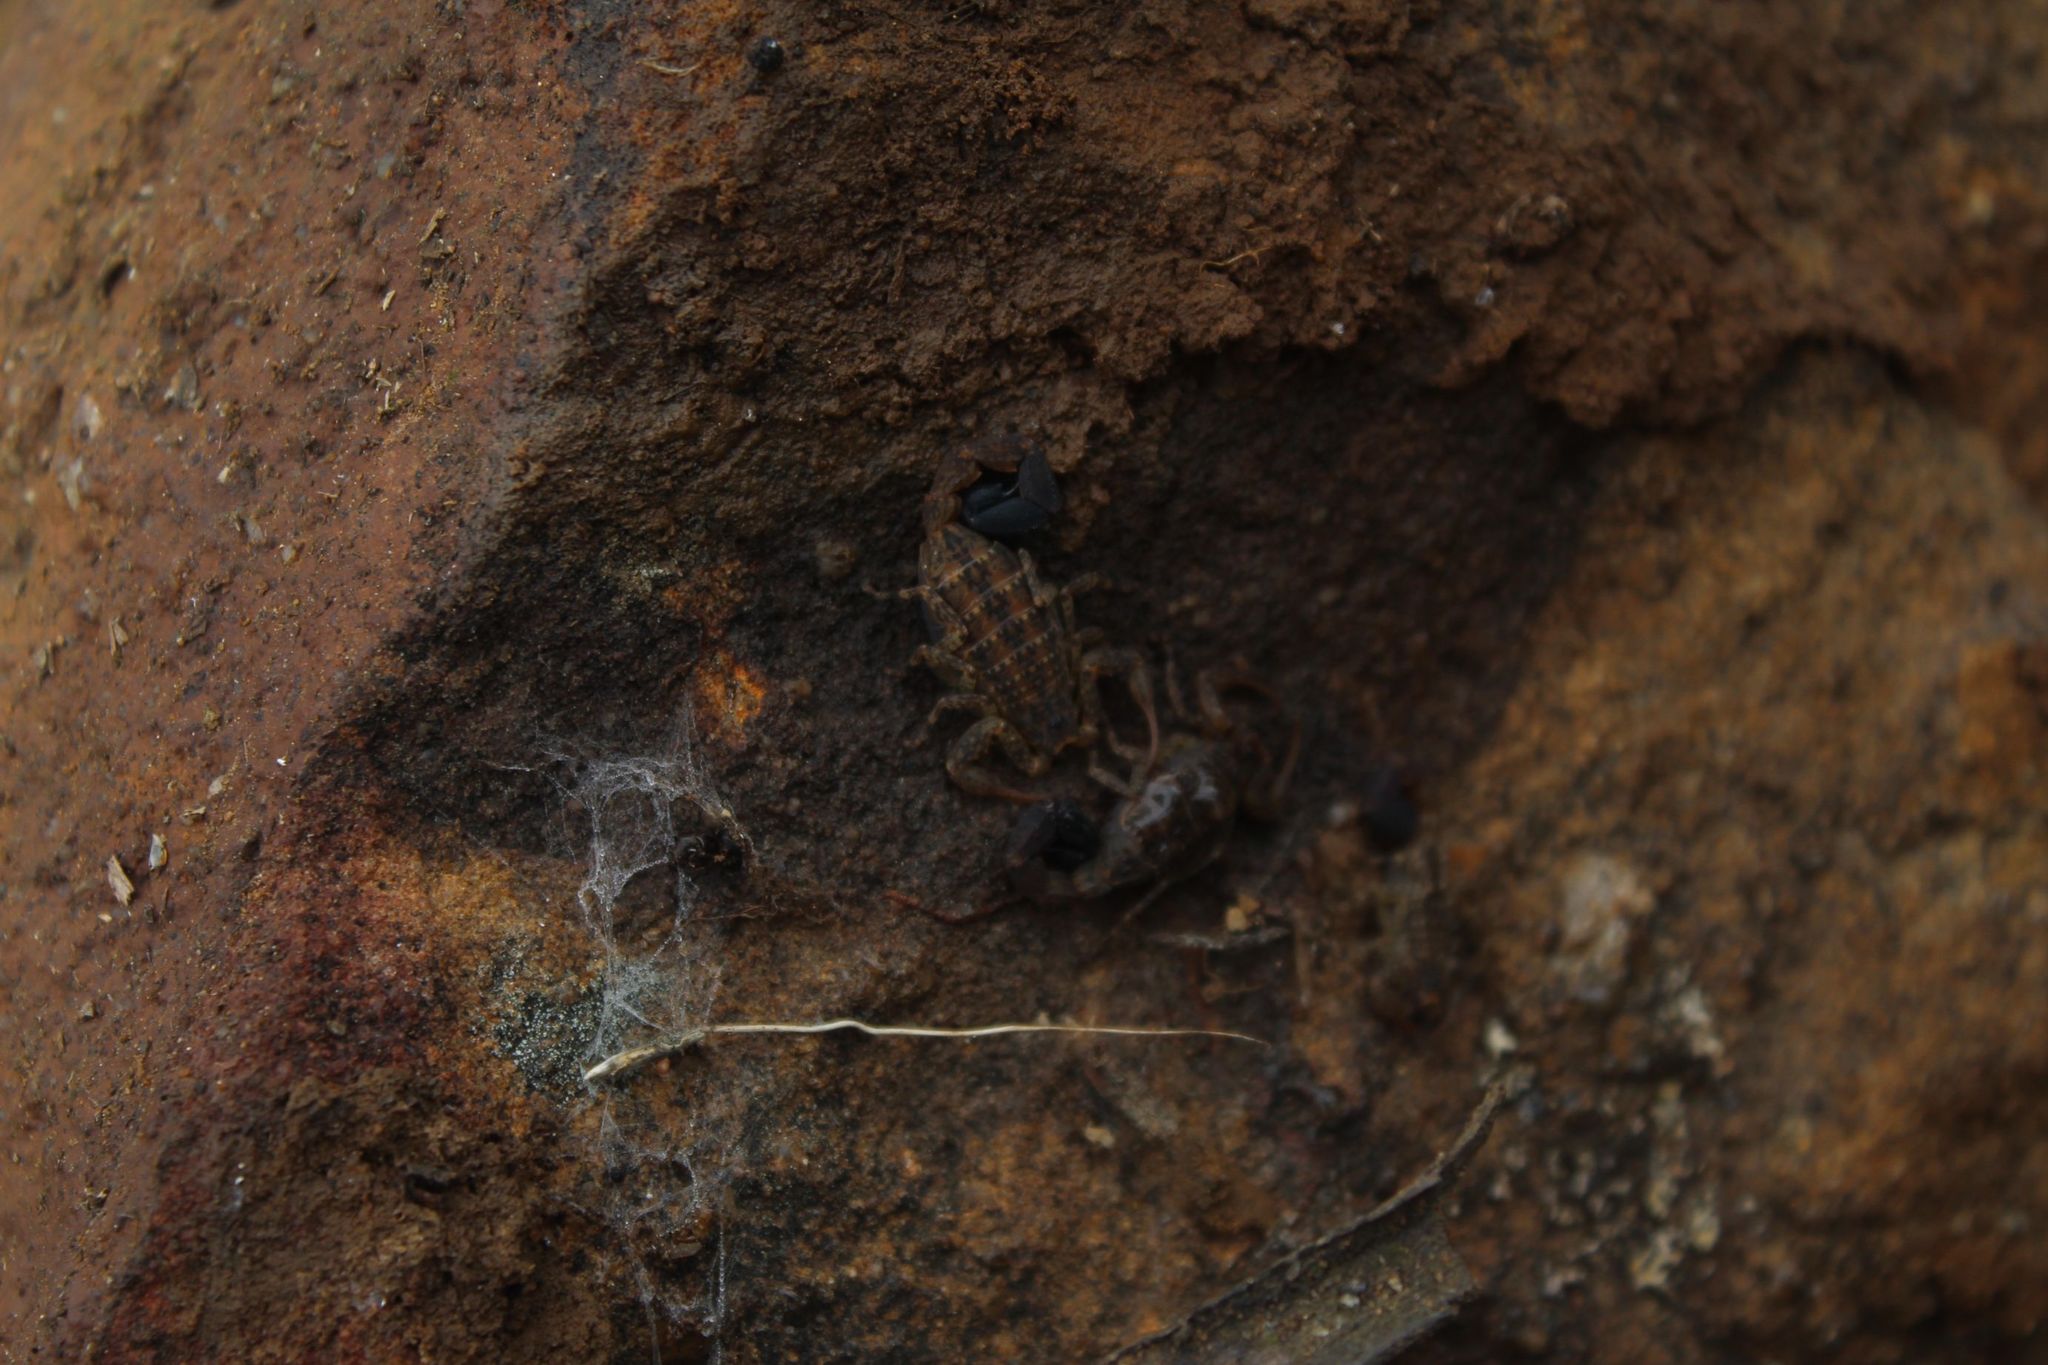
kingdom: Animalia
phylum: Arthropoda
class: Arachnida
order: Scorpiones
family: Buthidae
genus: Tityus
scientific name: Tityus columbianus
